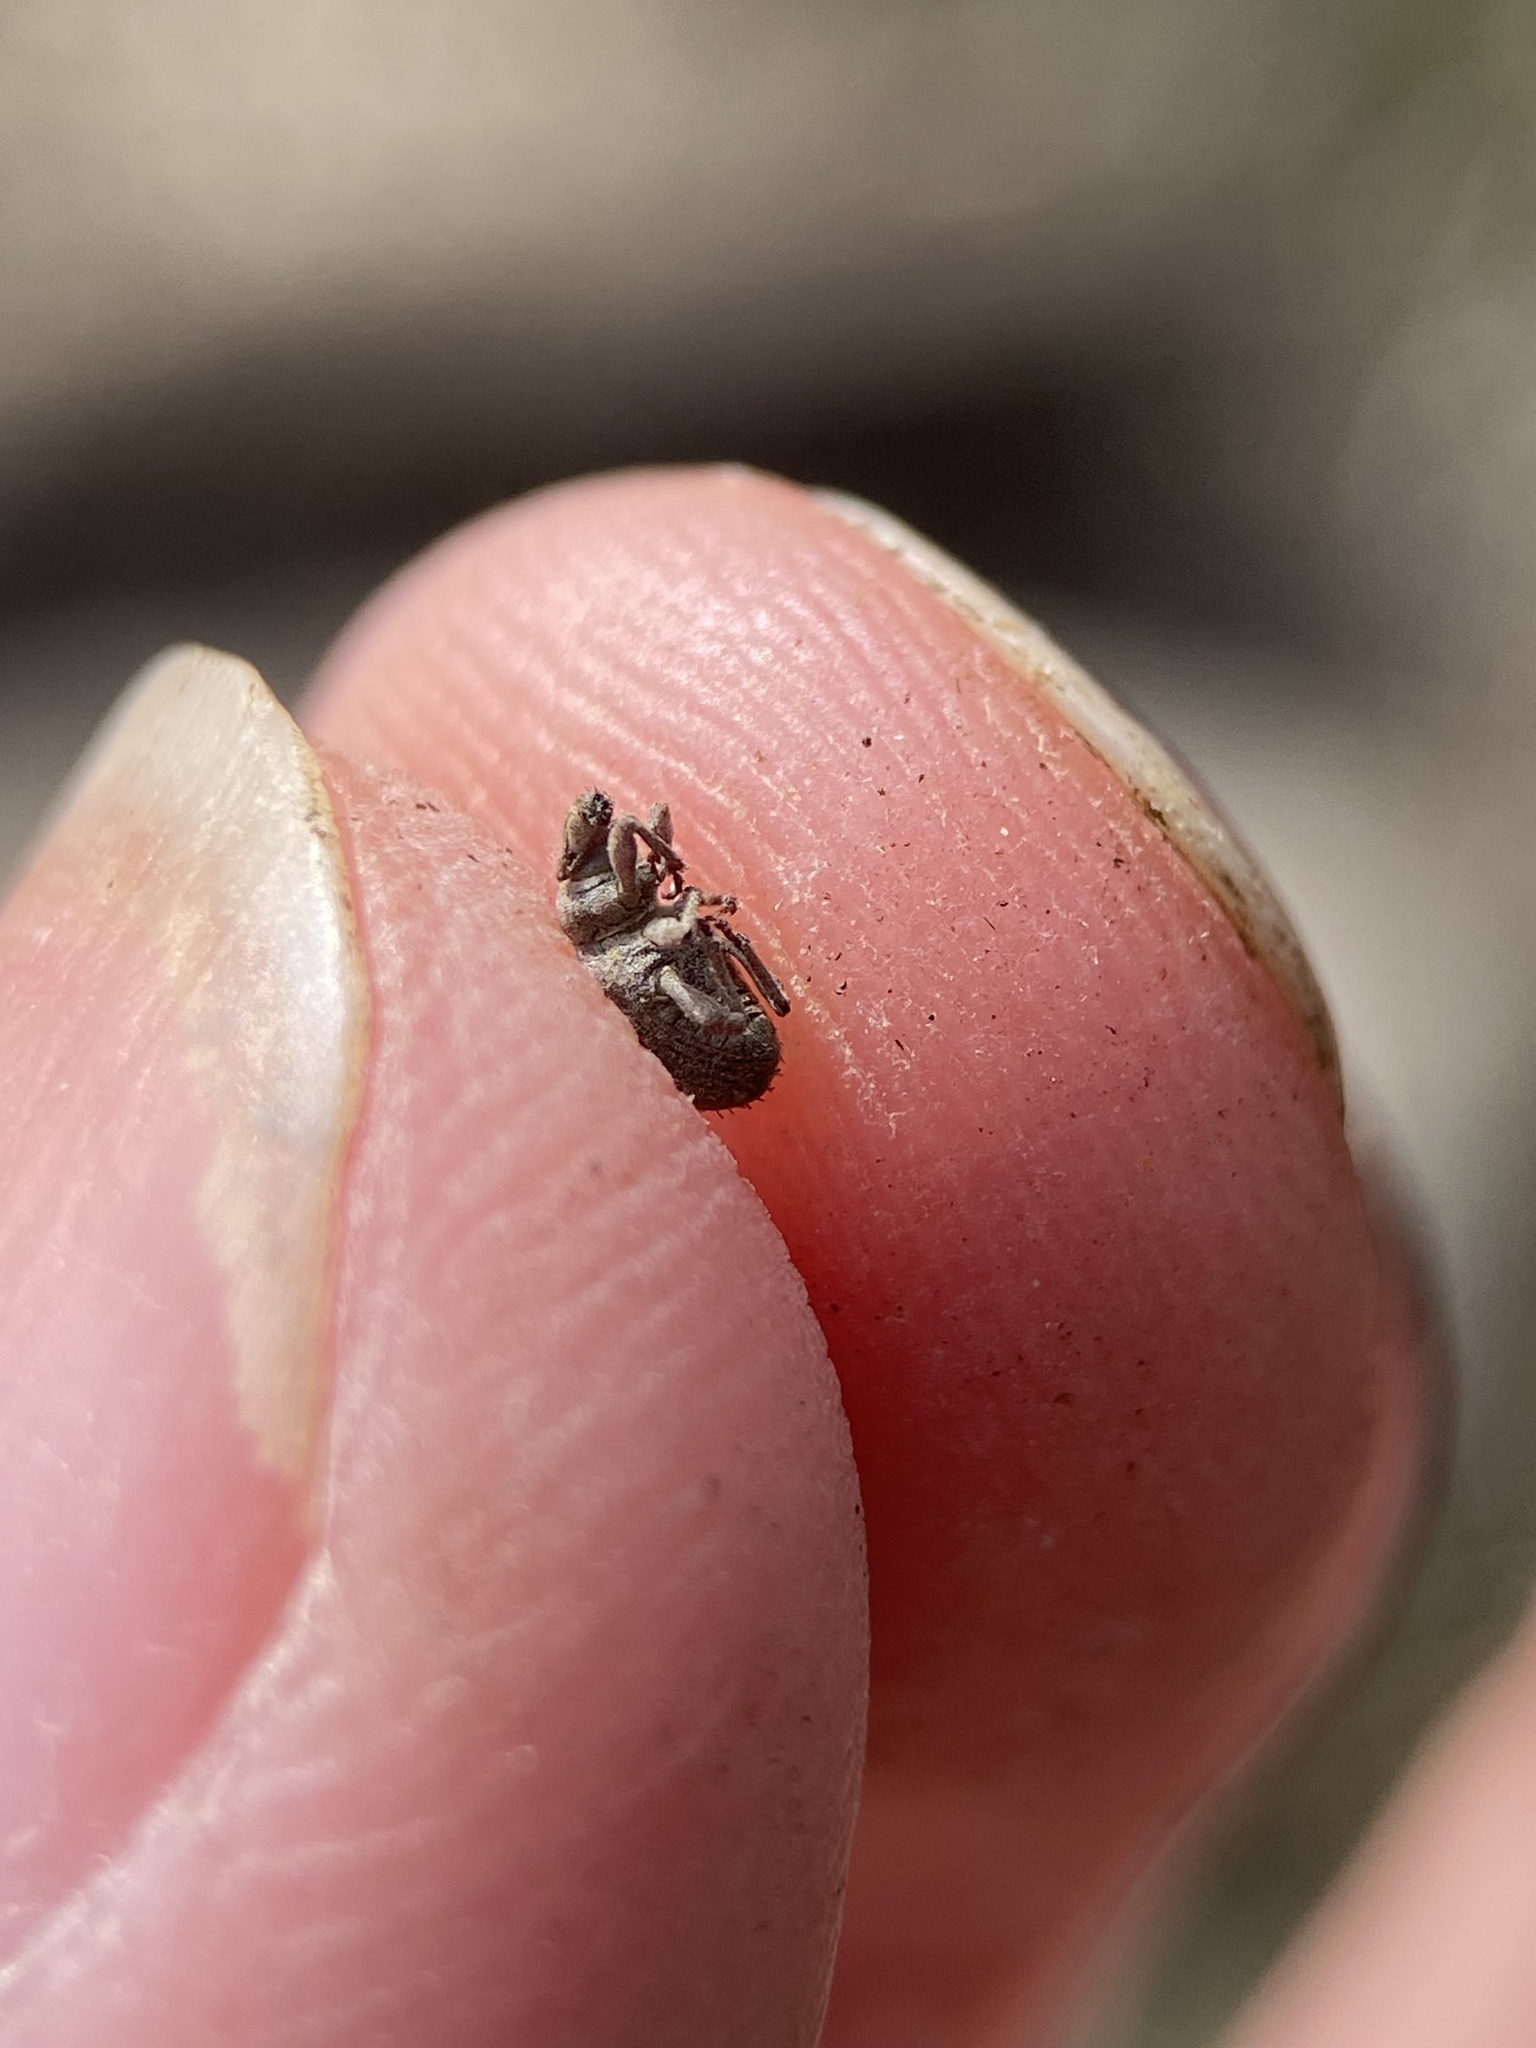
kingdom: Animalia
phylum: Arthropoda
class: Insecta
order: Coleoptera
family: Curculionidae
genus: Romualdius
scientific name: Romualdius scaber
